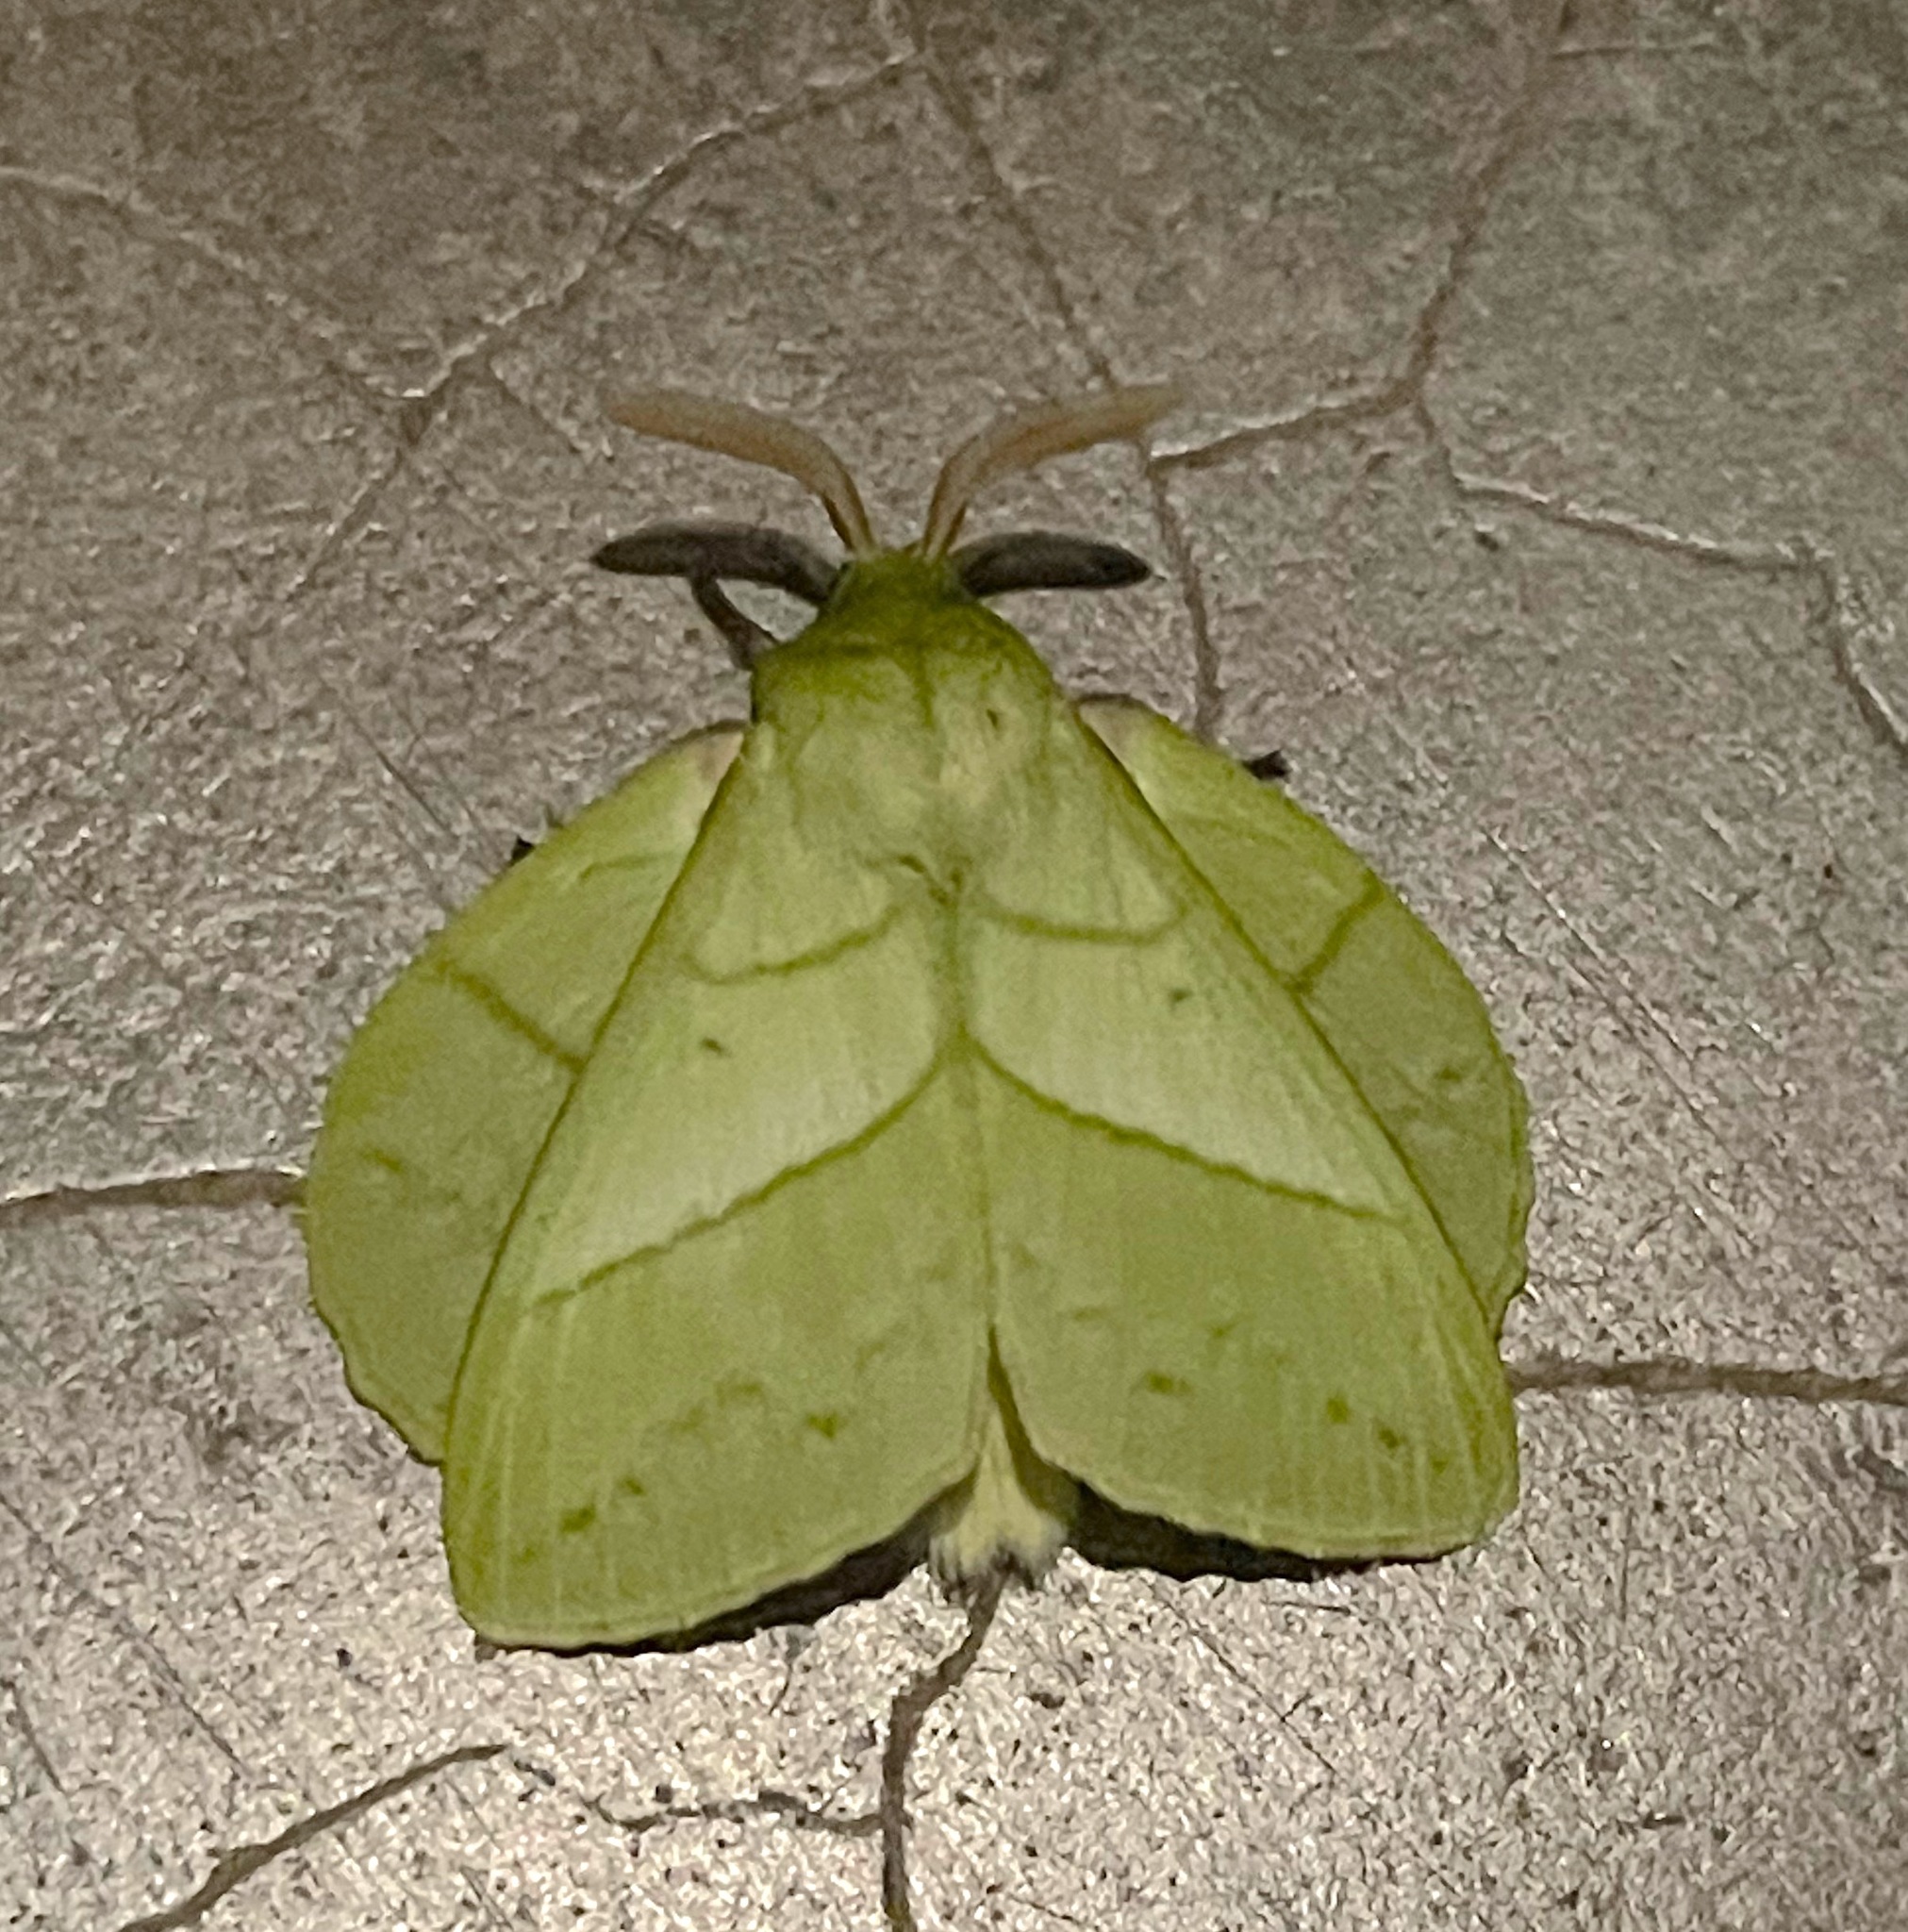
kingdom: Animalia
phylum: Arthropoda
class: Insecta
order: Lepidoptera
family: Lasiocampidae
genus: Trabala
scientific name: Trabala vishnou
